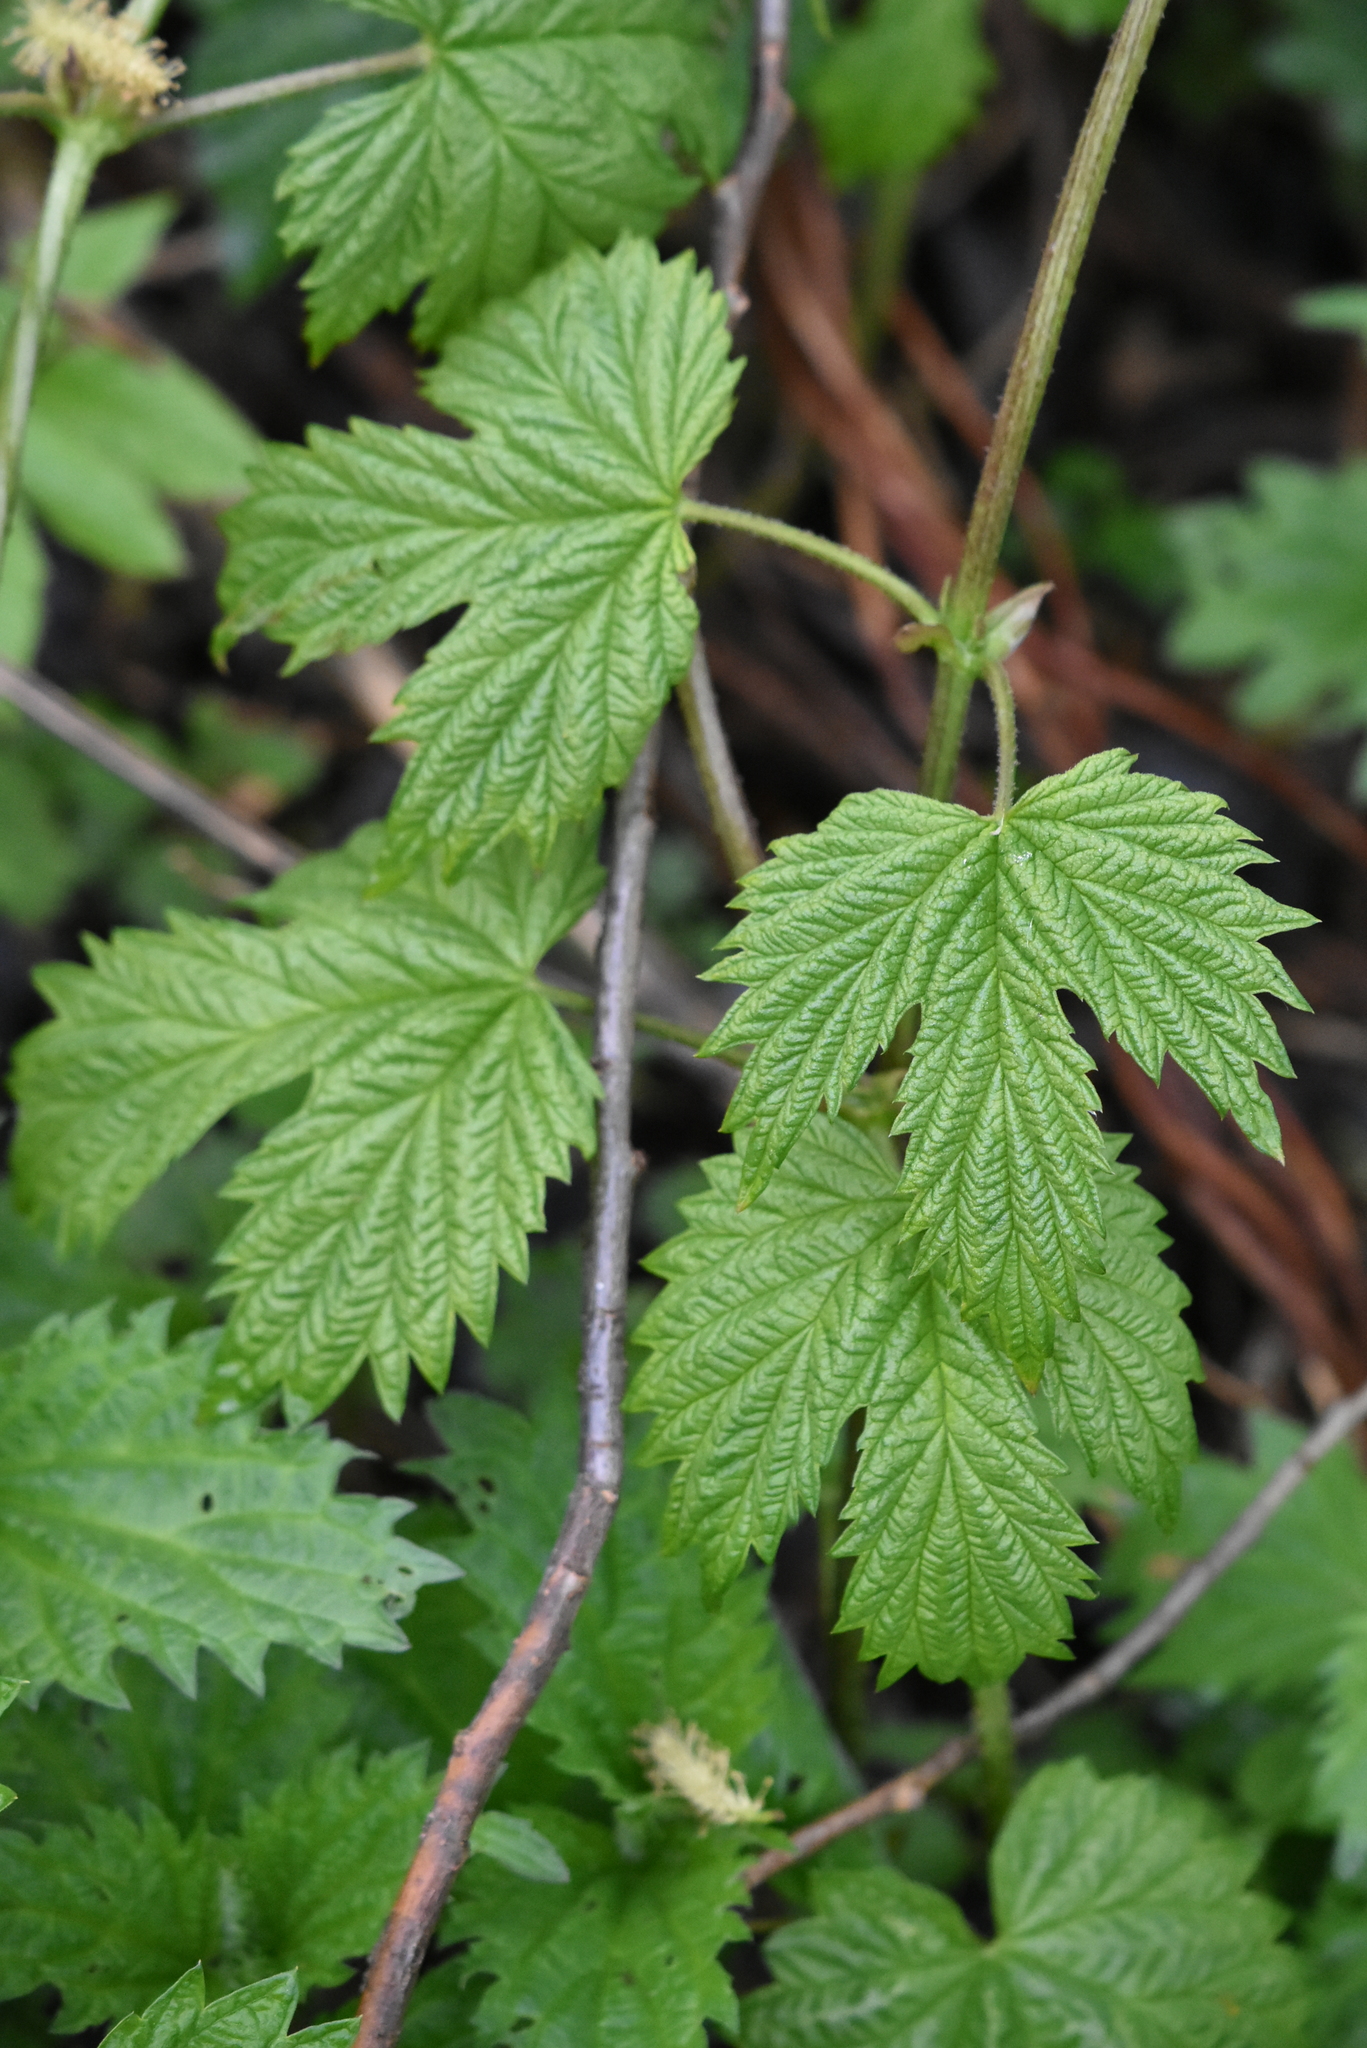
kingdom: Plantae
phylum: Tracheophyta
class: Magnoliopsida
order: Rosales
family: Cannabaceae
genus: Humulus
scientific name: Humulus lupulus
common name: Hop
